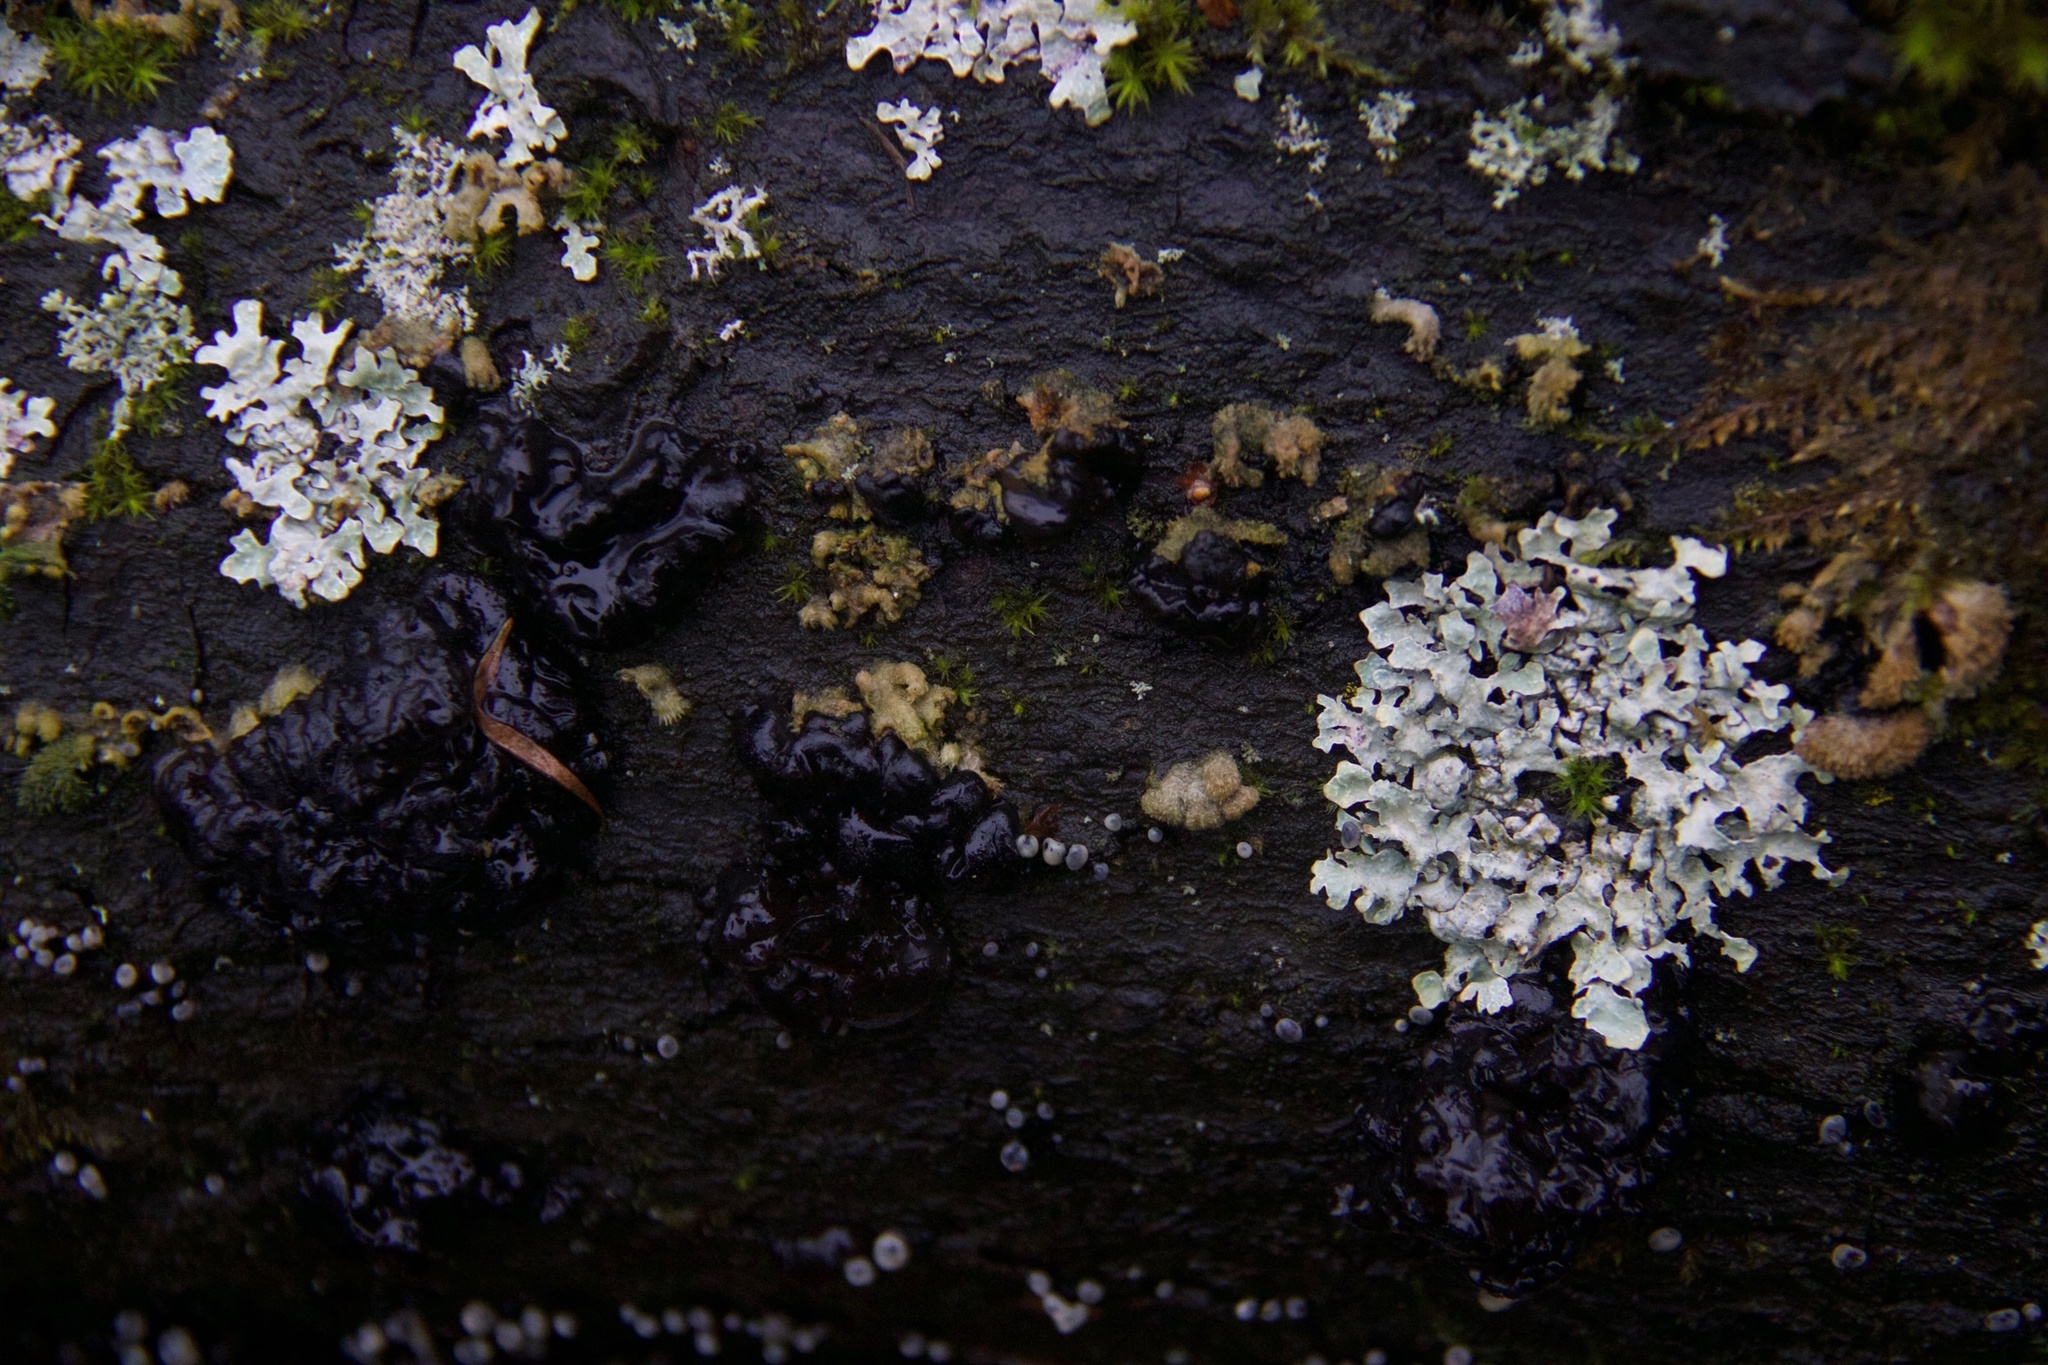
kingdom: Fungi
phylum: Ascomycota
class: Lecanoromycetes
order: Lecanorales
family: Parmeliaceae
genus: Parmelia
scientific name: Parmelia sulcata
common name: Netted shield lichen
